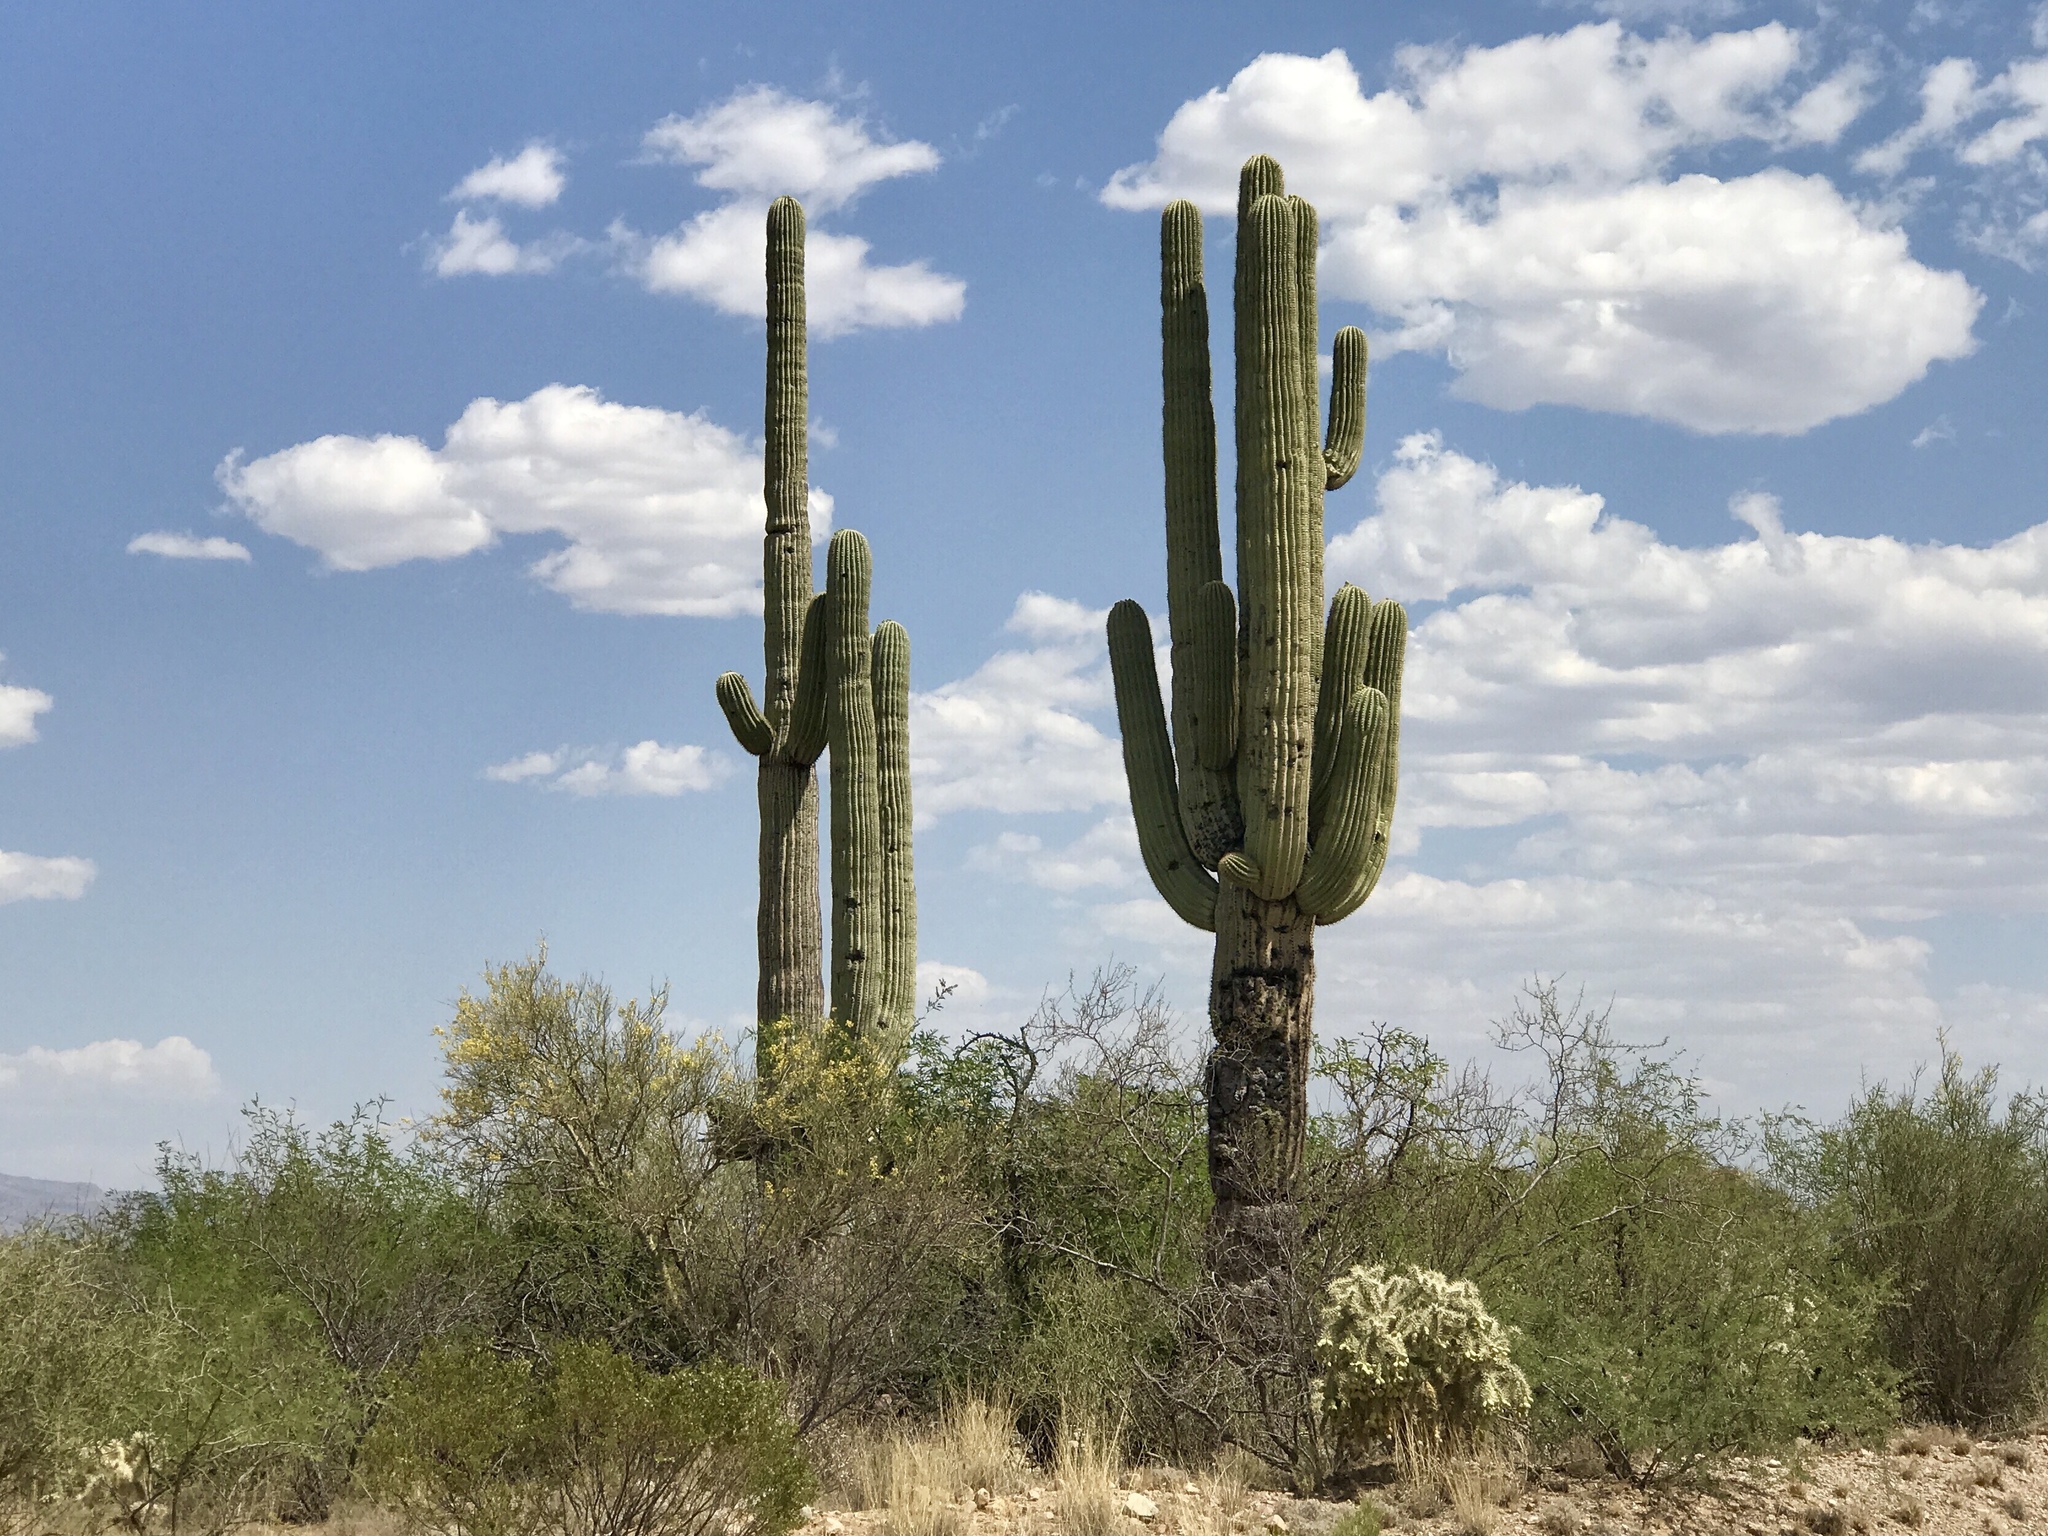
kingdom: Plantae
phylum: Tracheophyta
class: Magnoliopsida
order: Caryophyllales
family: Cactaceae
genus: Carnegiea
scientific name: Carnegiea gigantea
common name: Saguaro
